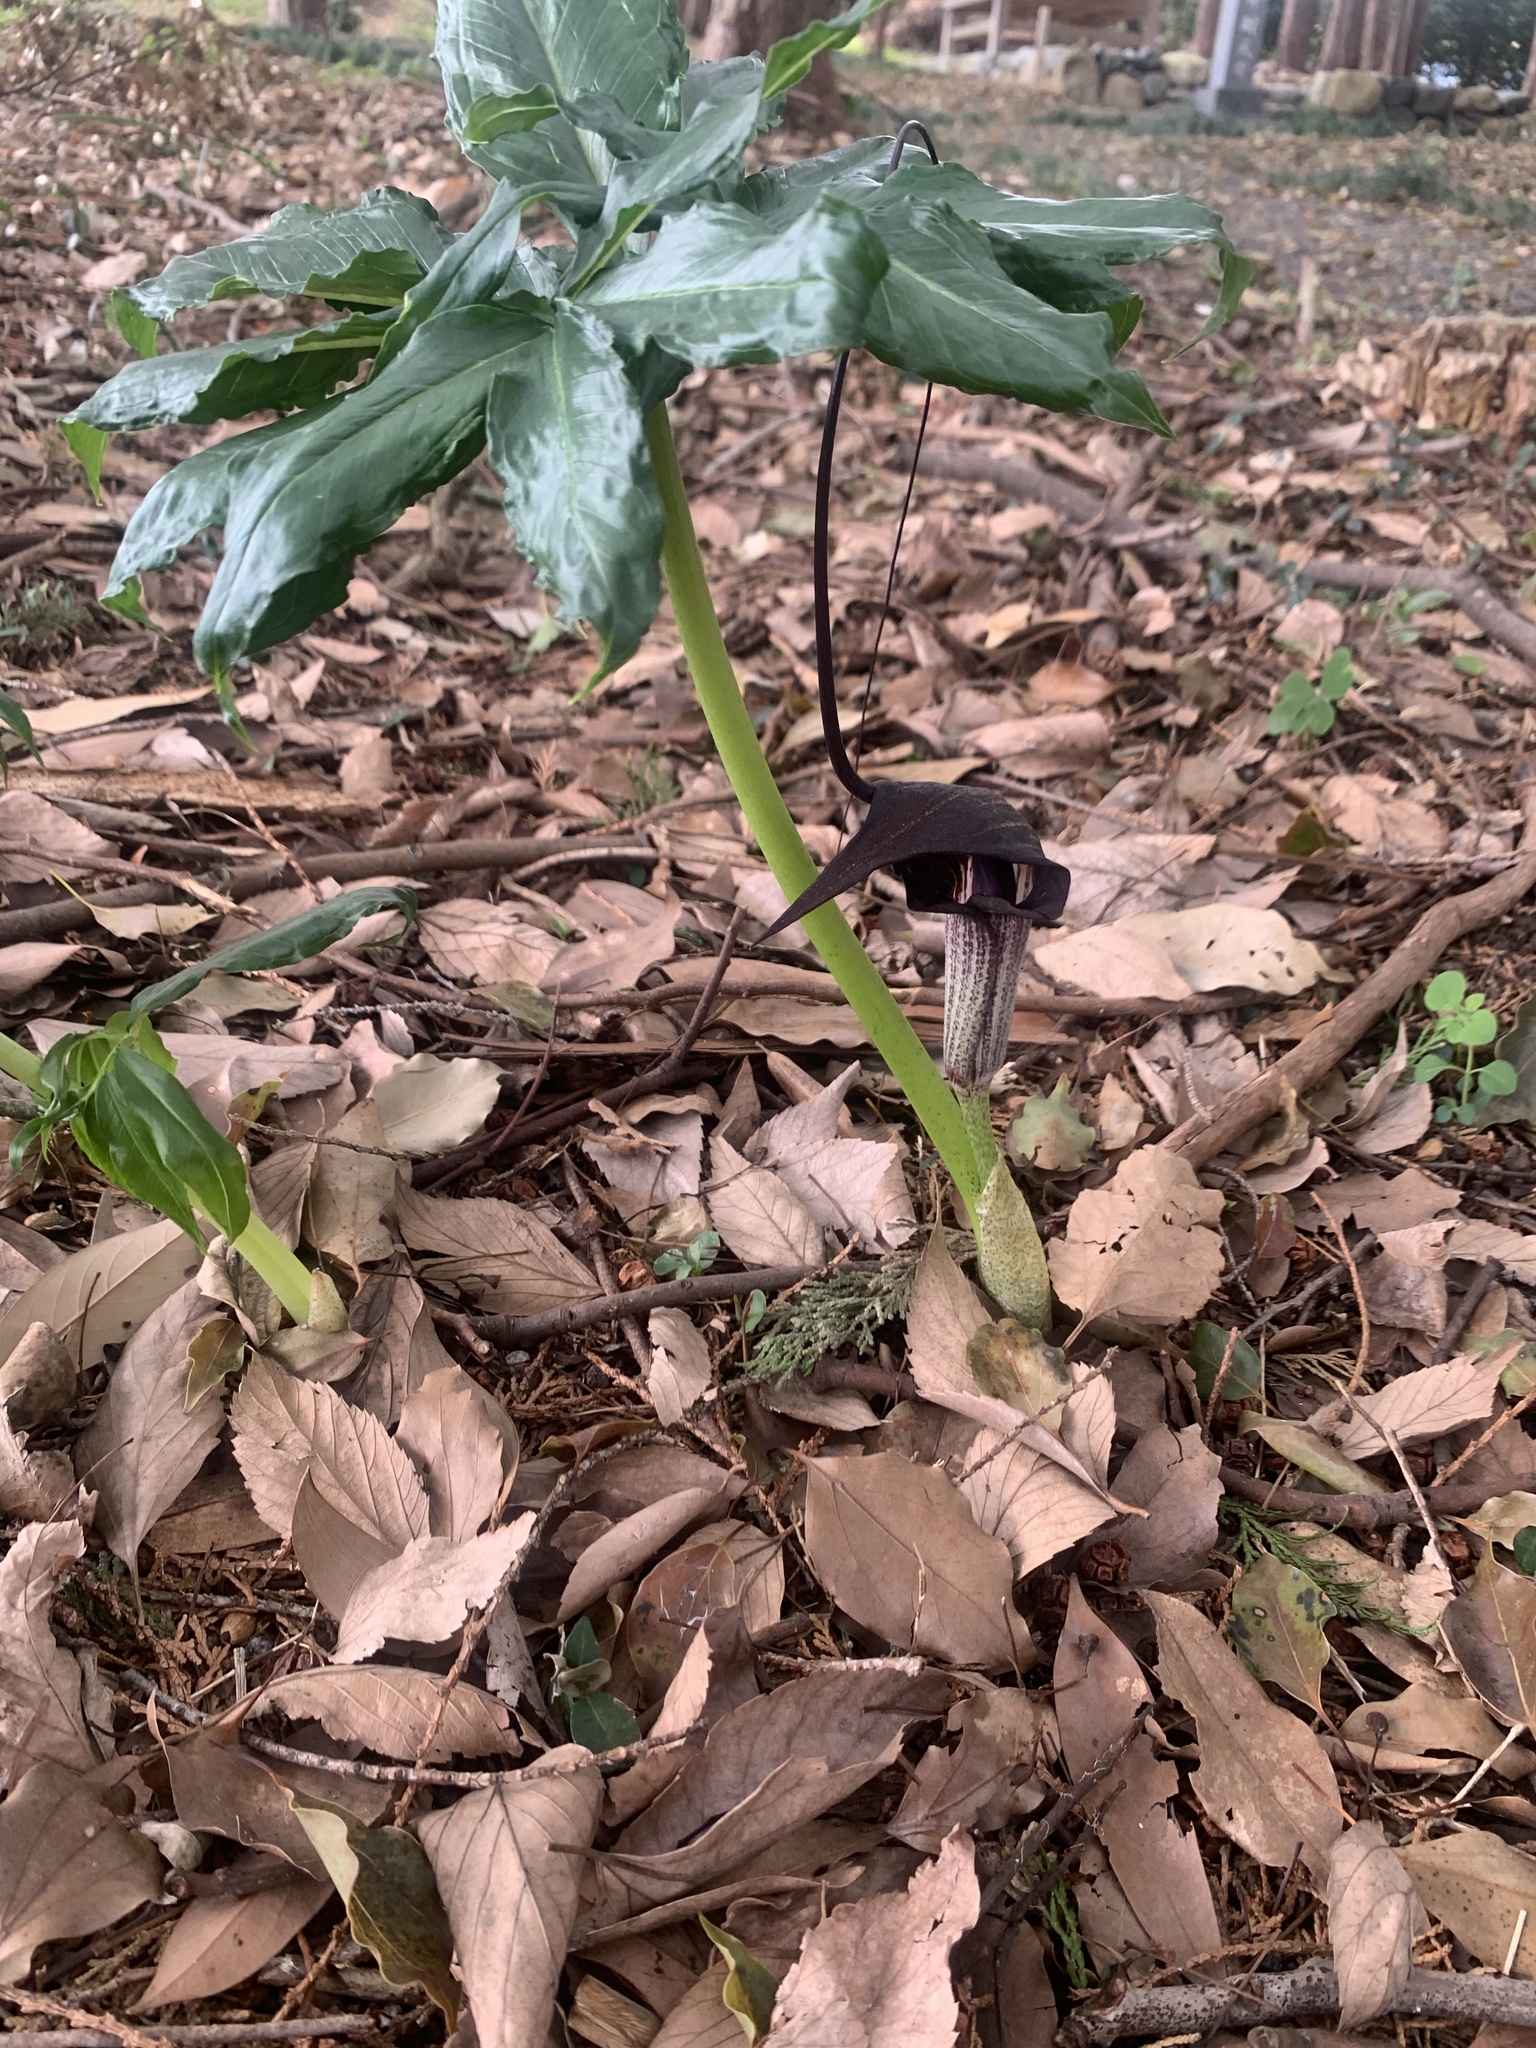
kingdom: Plantae
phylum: Tracheophyta
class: Liliopsida
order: Alismatales
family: Araceae
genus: Arisaema
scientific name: Arisaema thunbergii
